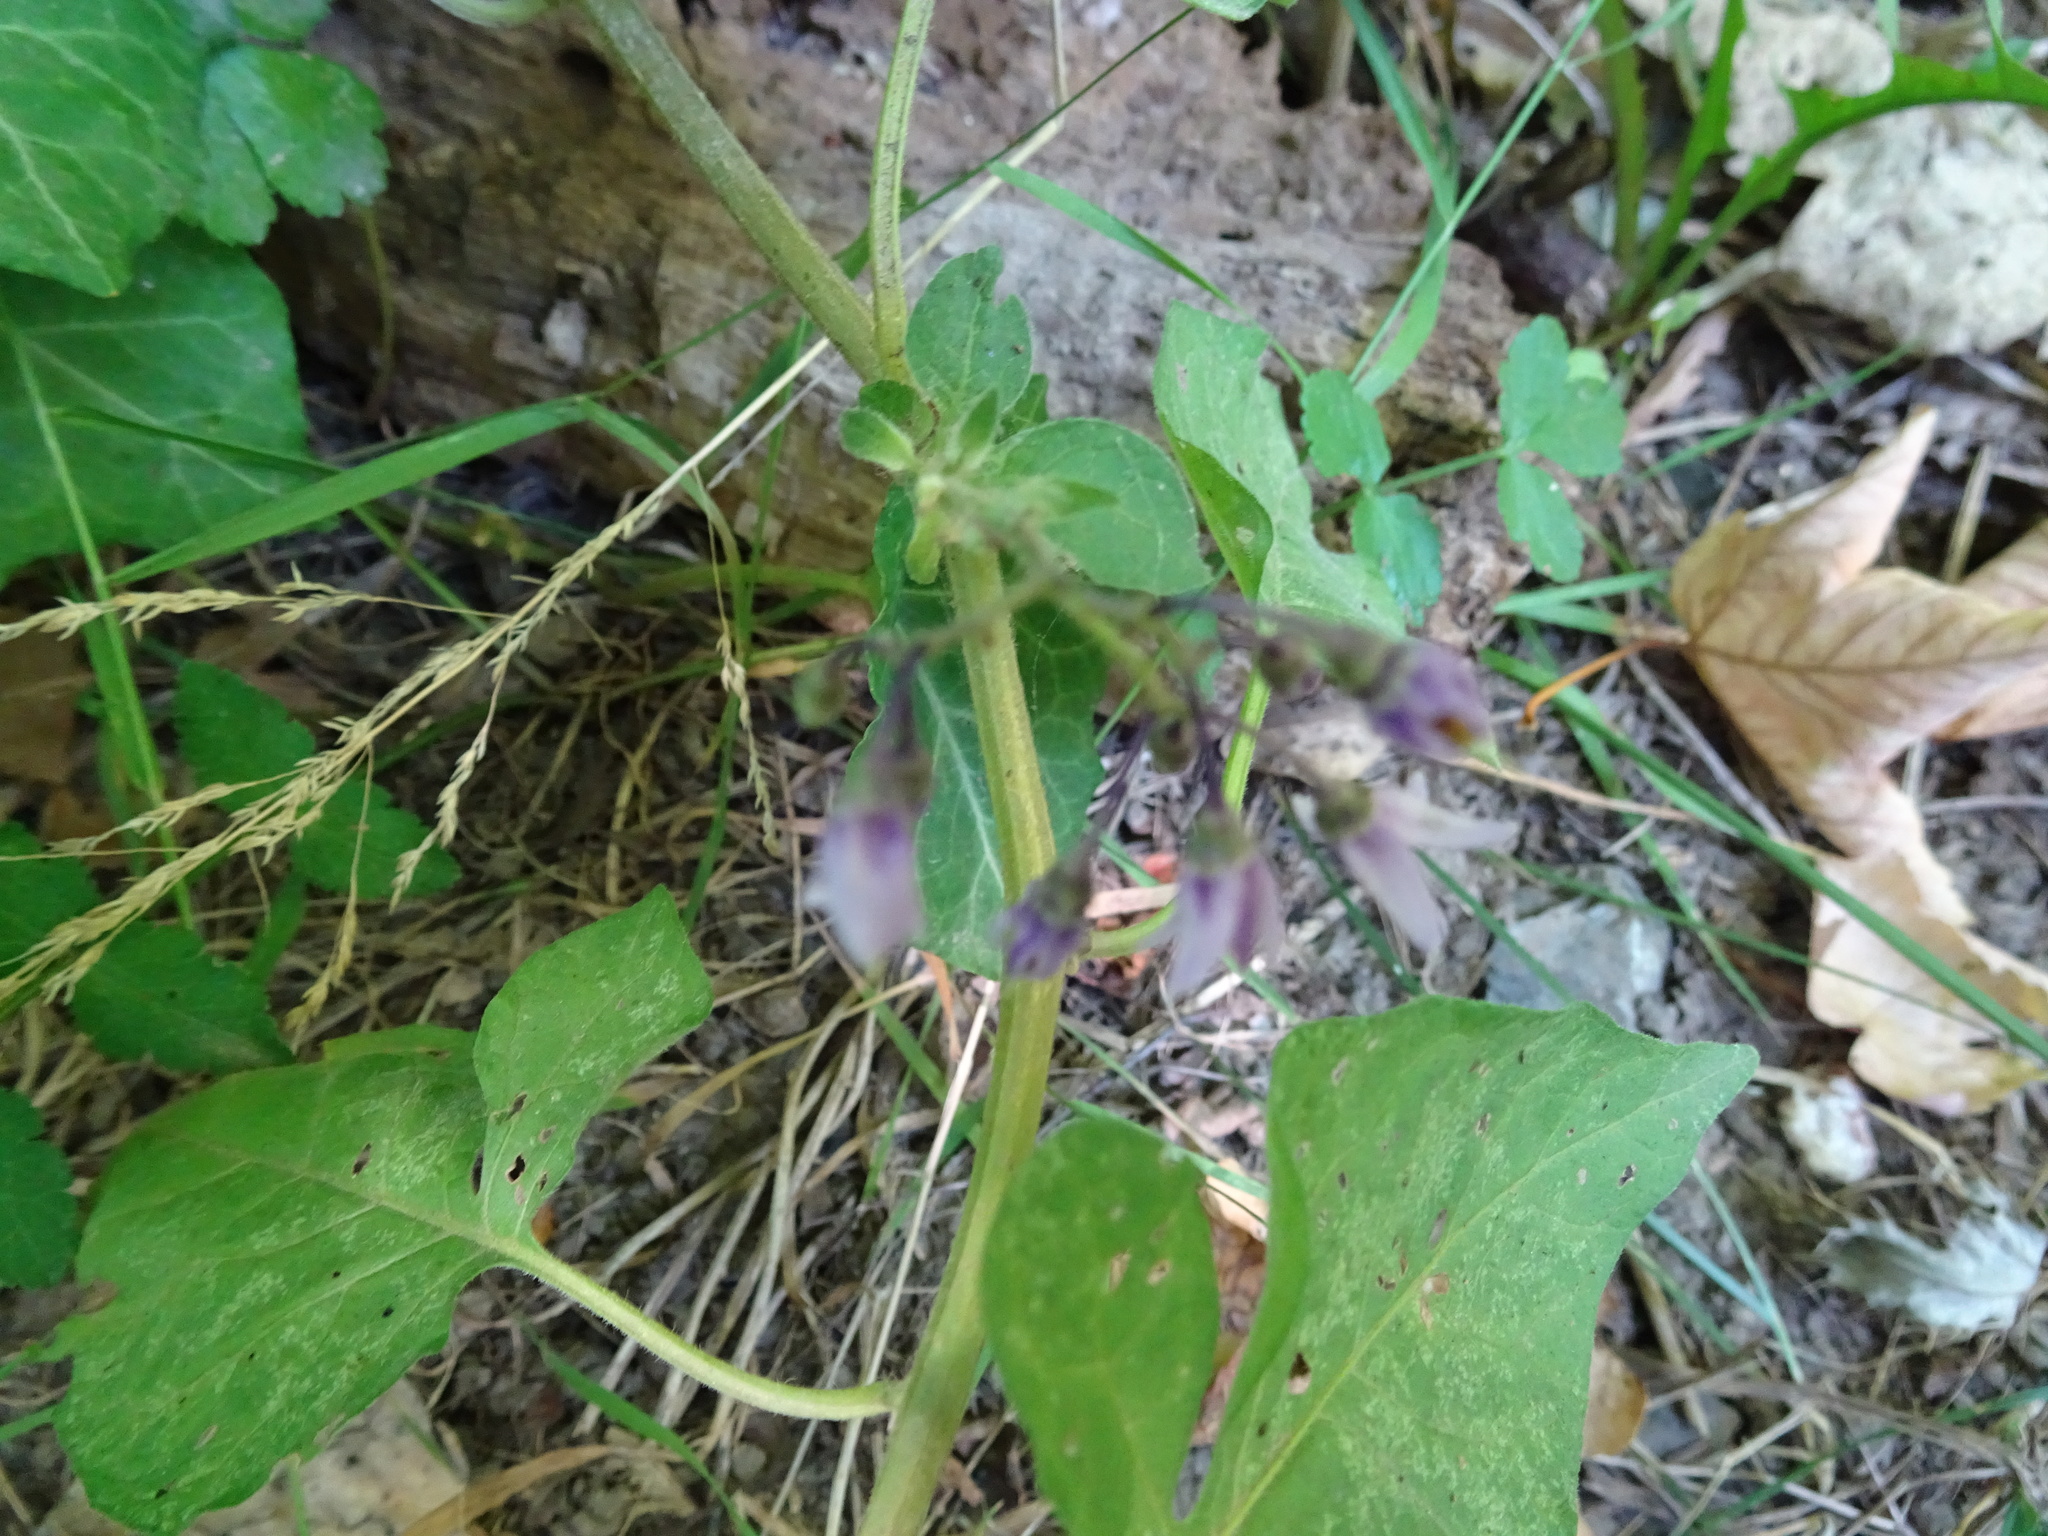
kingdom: Plantae
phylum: Tracheophyta
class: Magnoliopsida
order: Solanales
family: Solanaceae
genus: Solanum
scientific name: Solanum dulcamara
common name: Climbing nightshade
